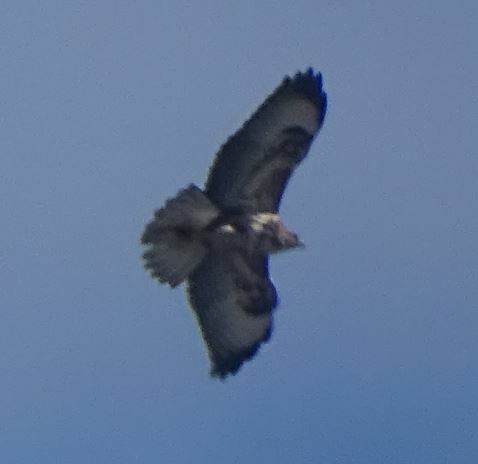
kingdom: Animalia
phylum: Chordata
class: Aves
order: Accipitriformes
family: Accipitridae
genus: Buteo
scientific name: Buteo buteo
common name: Common buzzard
